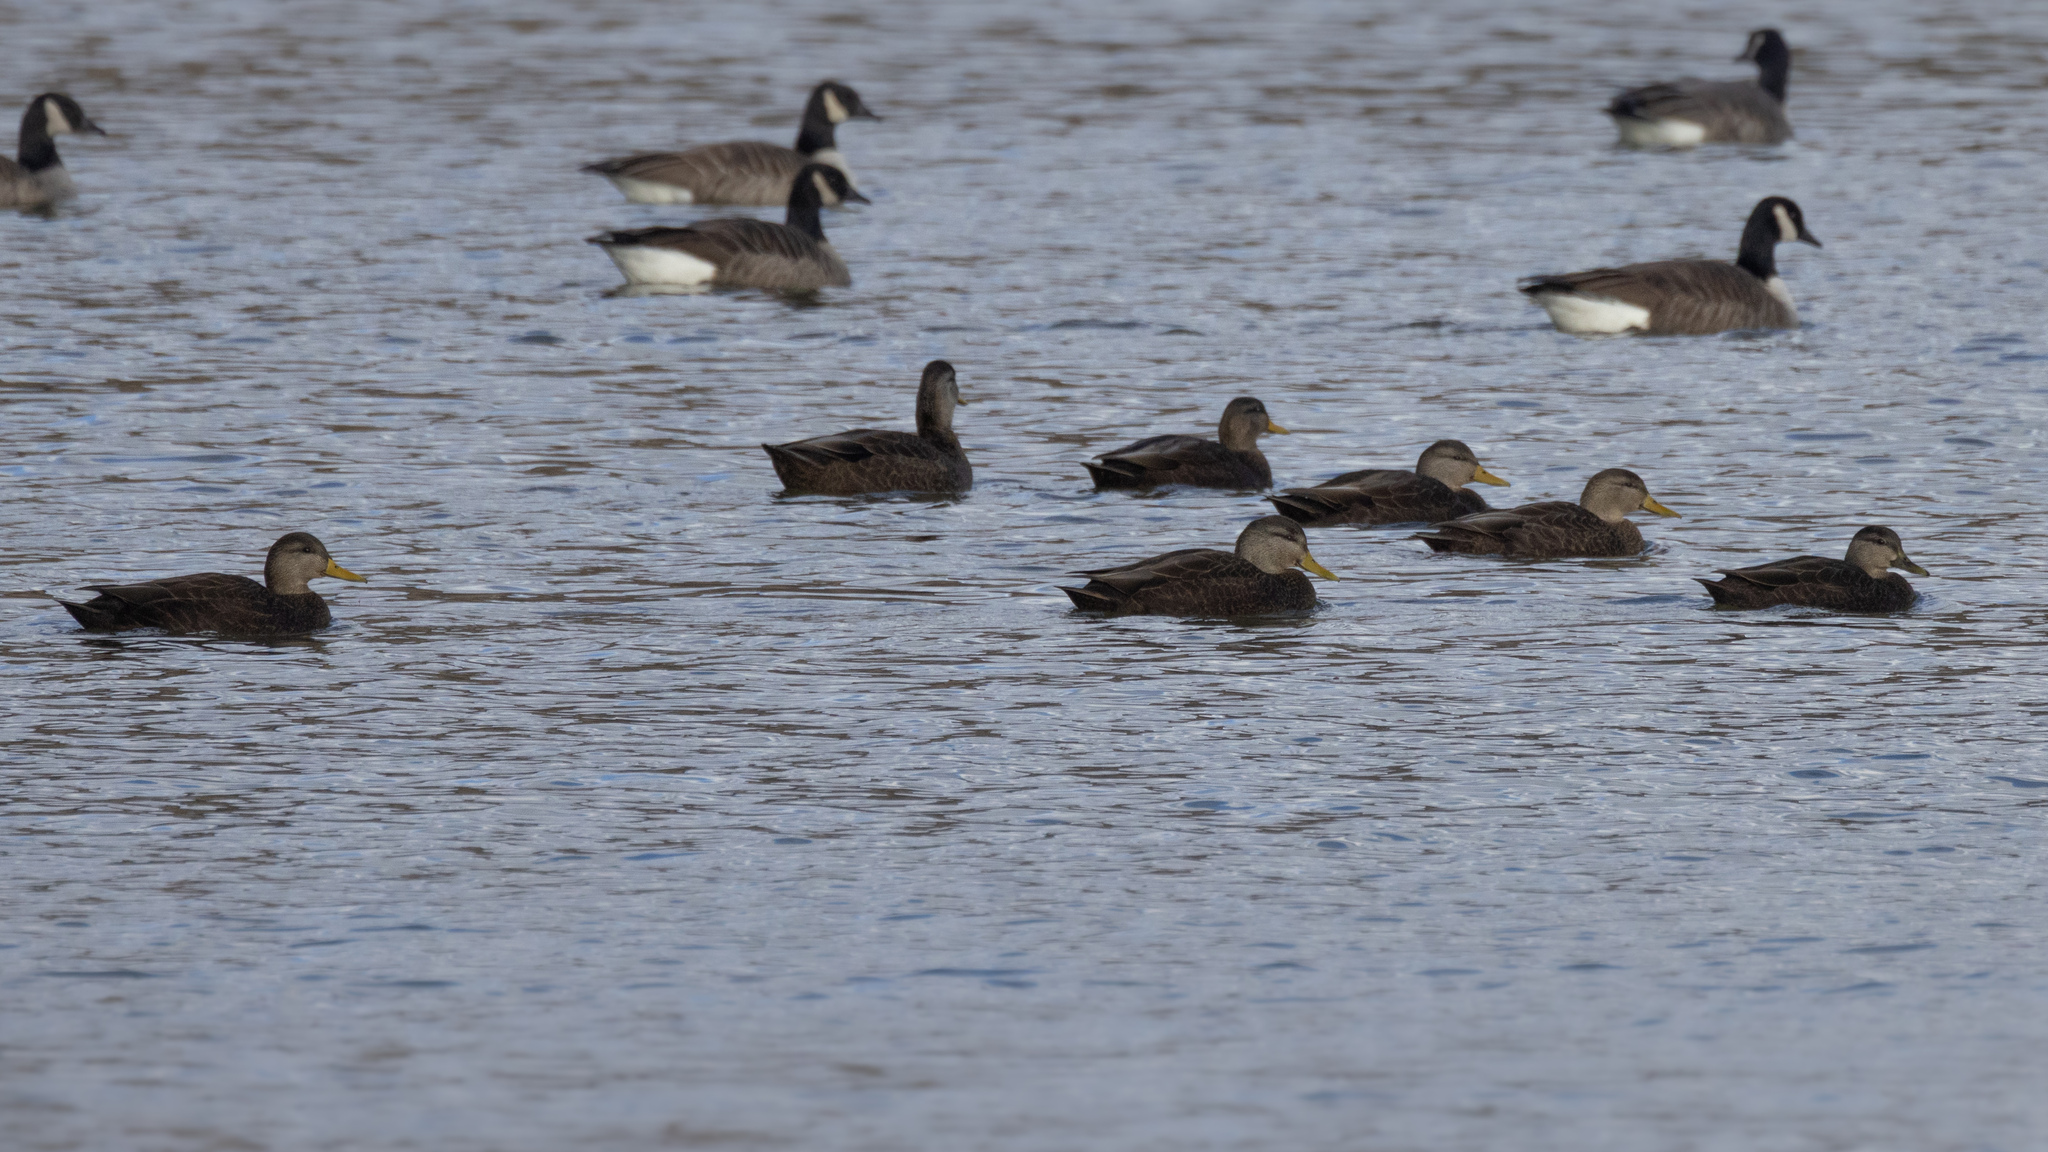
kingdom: Animalia
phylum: Chordata
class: Aves
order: Anseriformes
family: Anatidae
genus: Anas
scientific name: Anas rubripes
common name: American black duck
